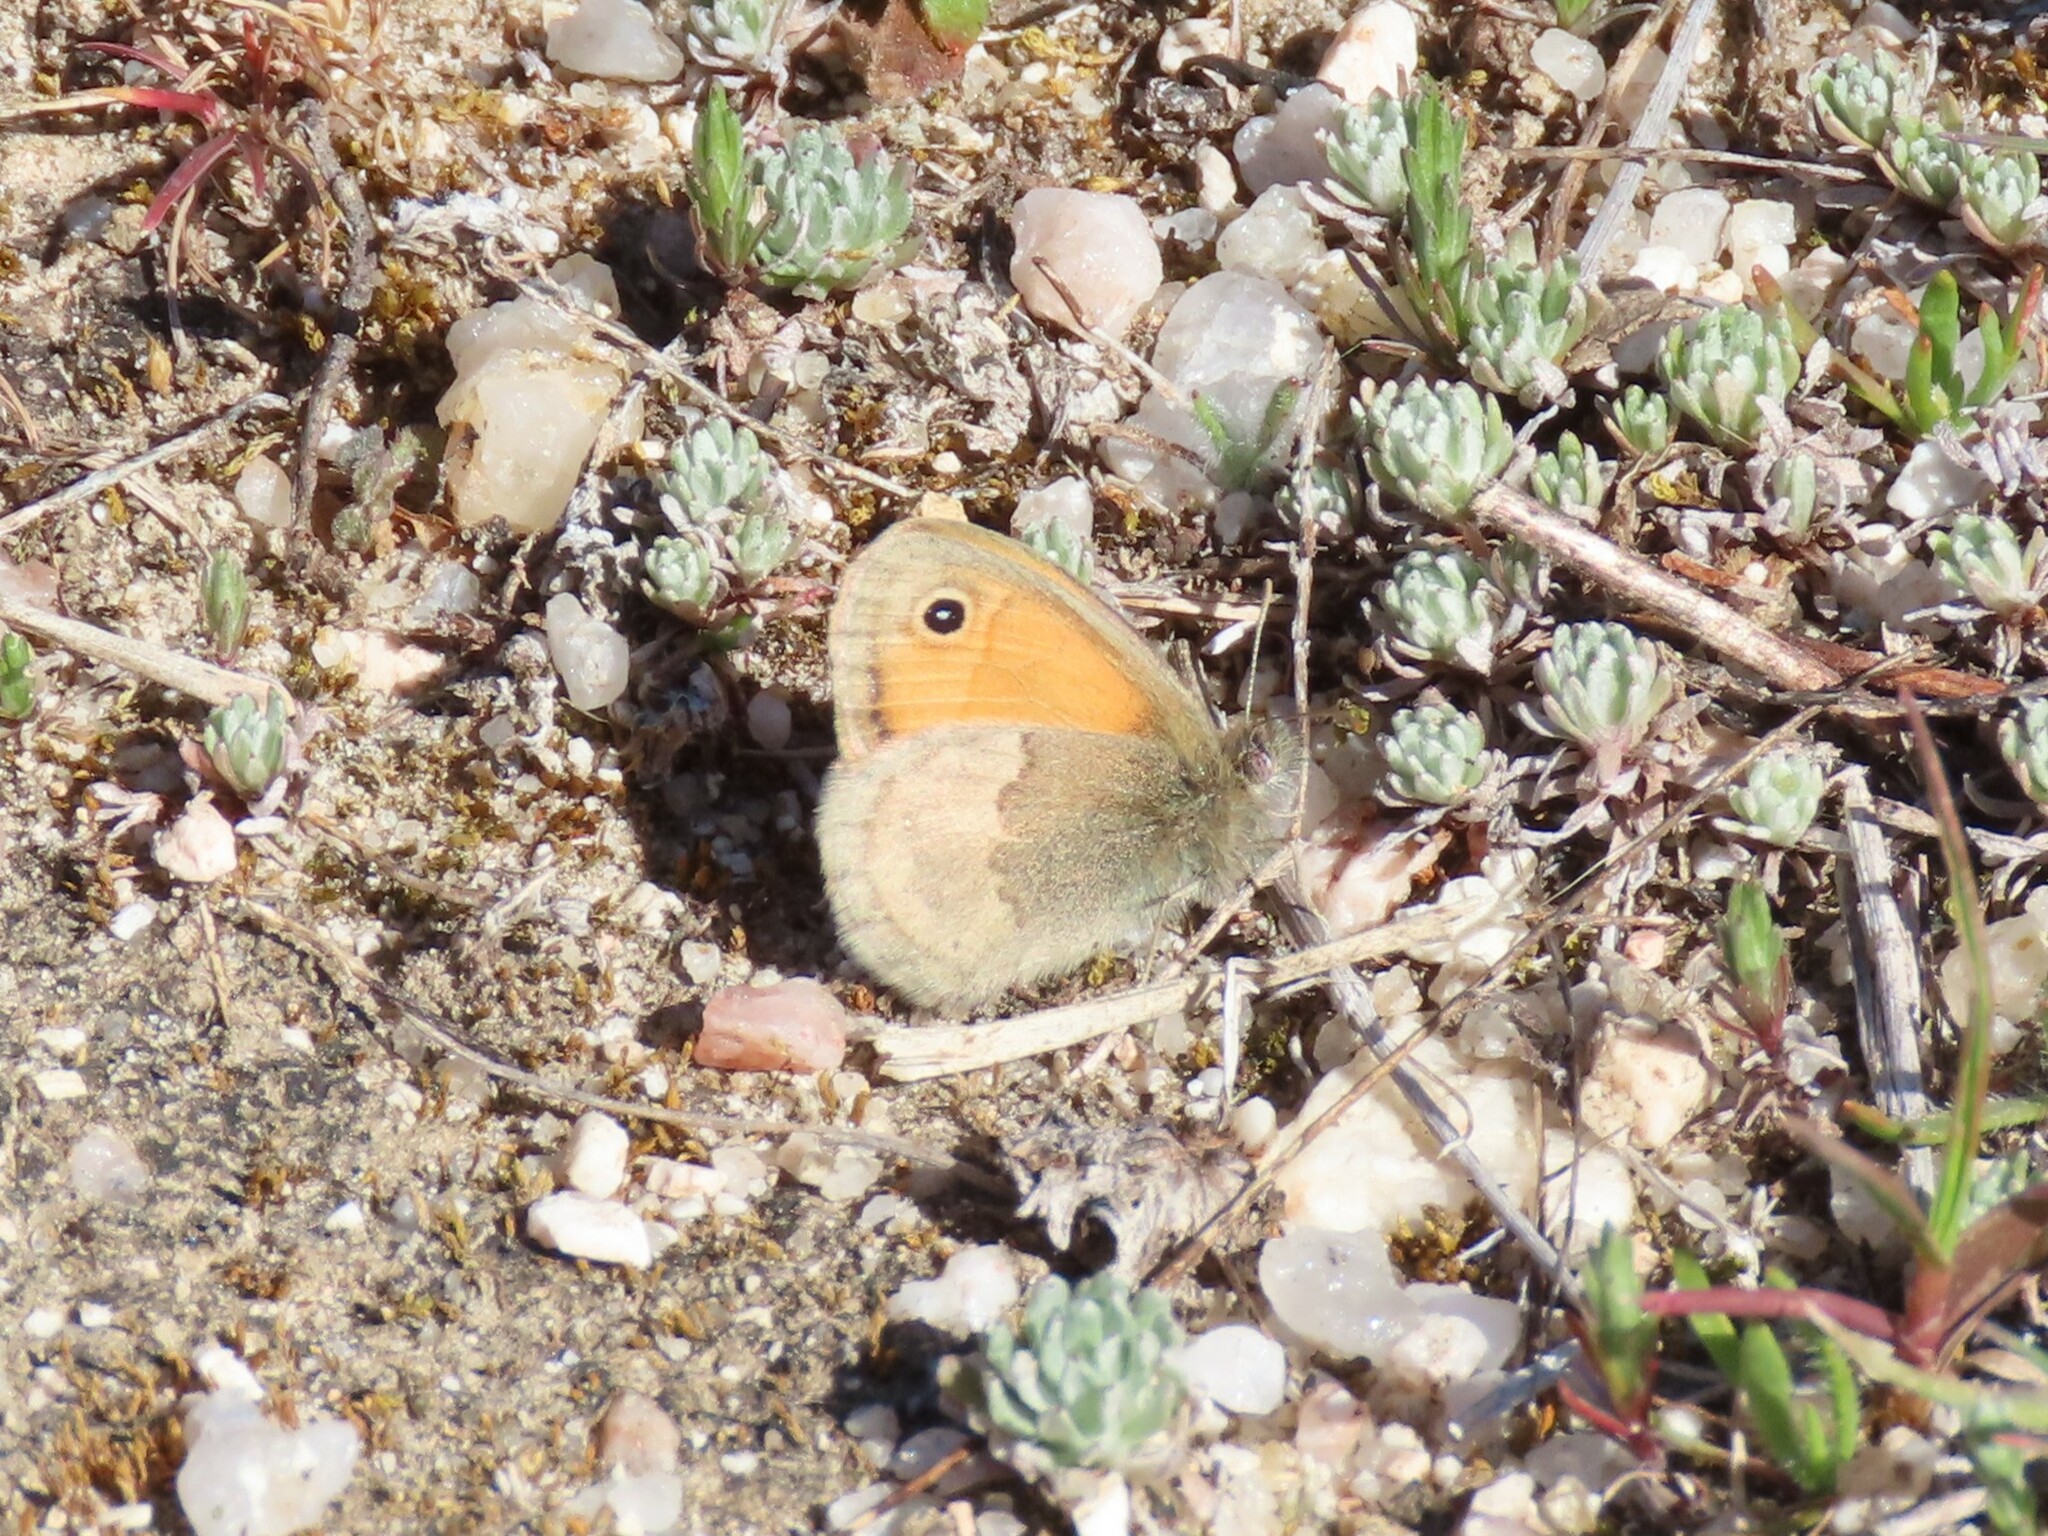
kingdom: Animalia
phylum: Arthropoda
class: Insecta
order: Lepidoptera
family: Nymphalidae
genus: Coenonympha
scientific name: Coenonympha pamphilus
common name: Small heath
